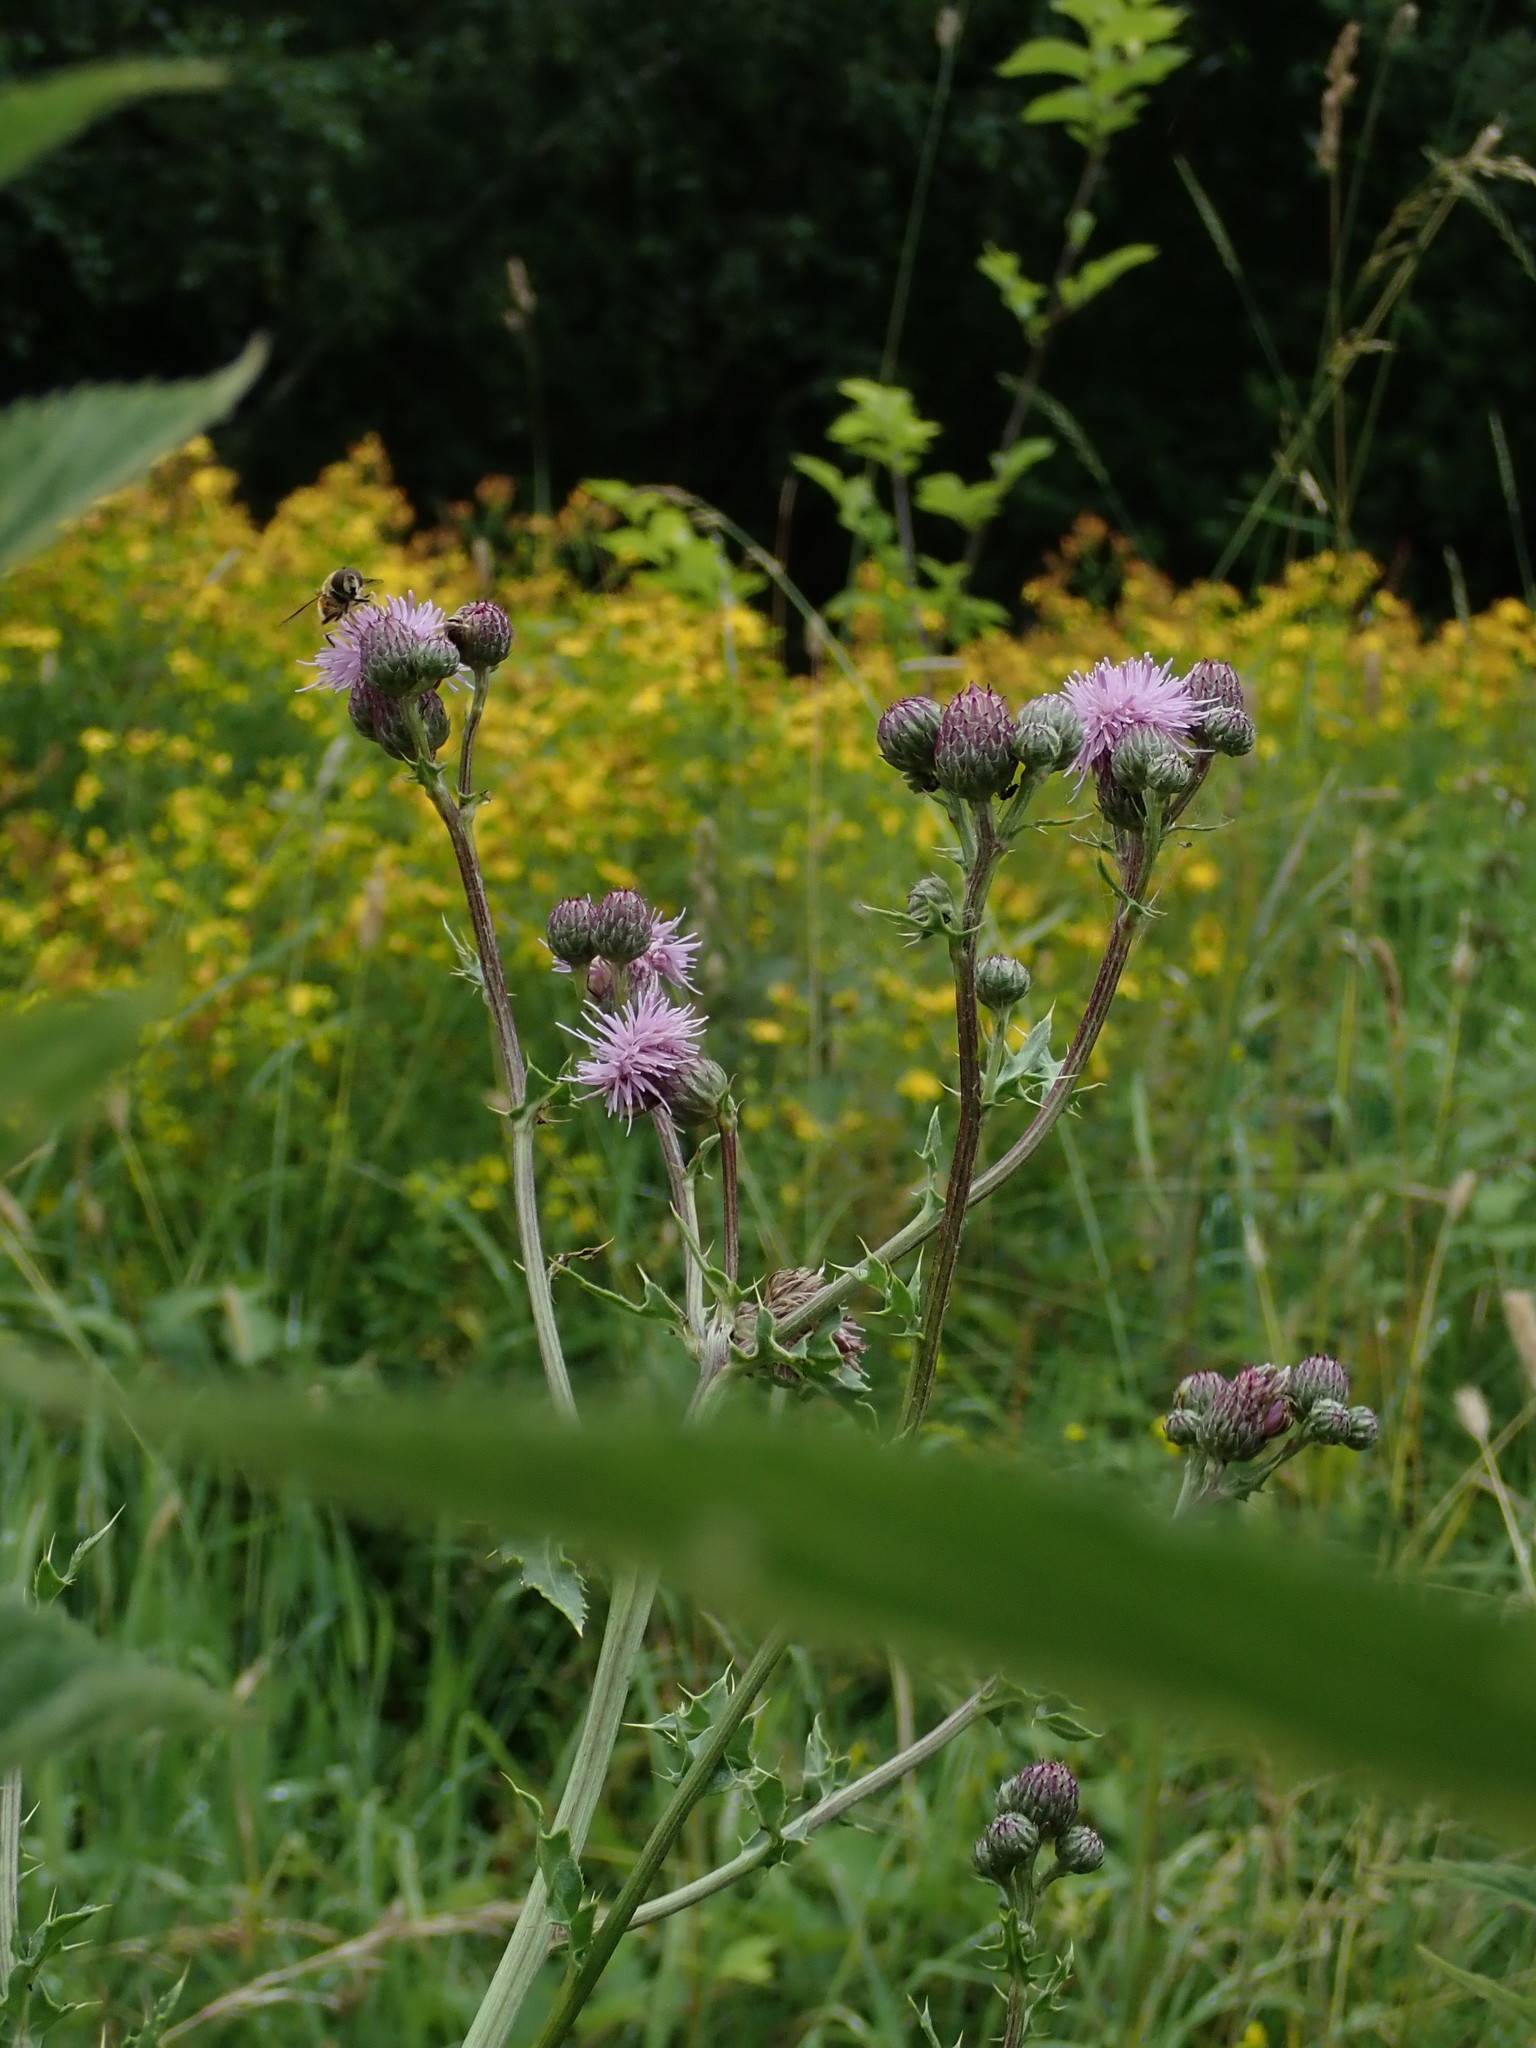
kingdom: Plantae
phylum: Tracheophyta
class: Magnoliopsida
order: Asterales
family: Asteraceae
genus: Cirsium
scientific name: Cirsium arvense
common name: Creeping thistle
